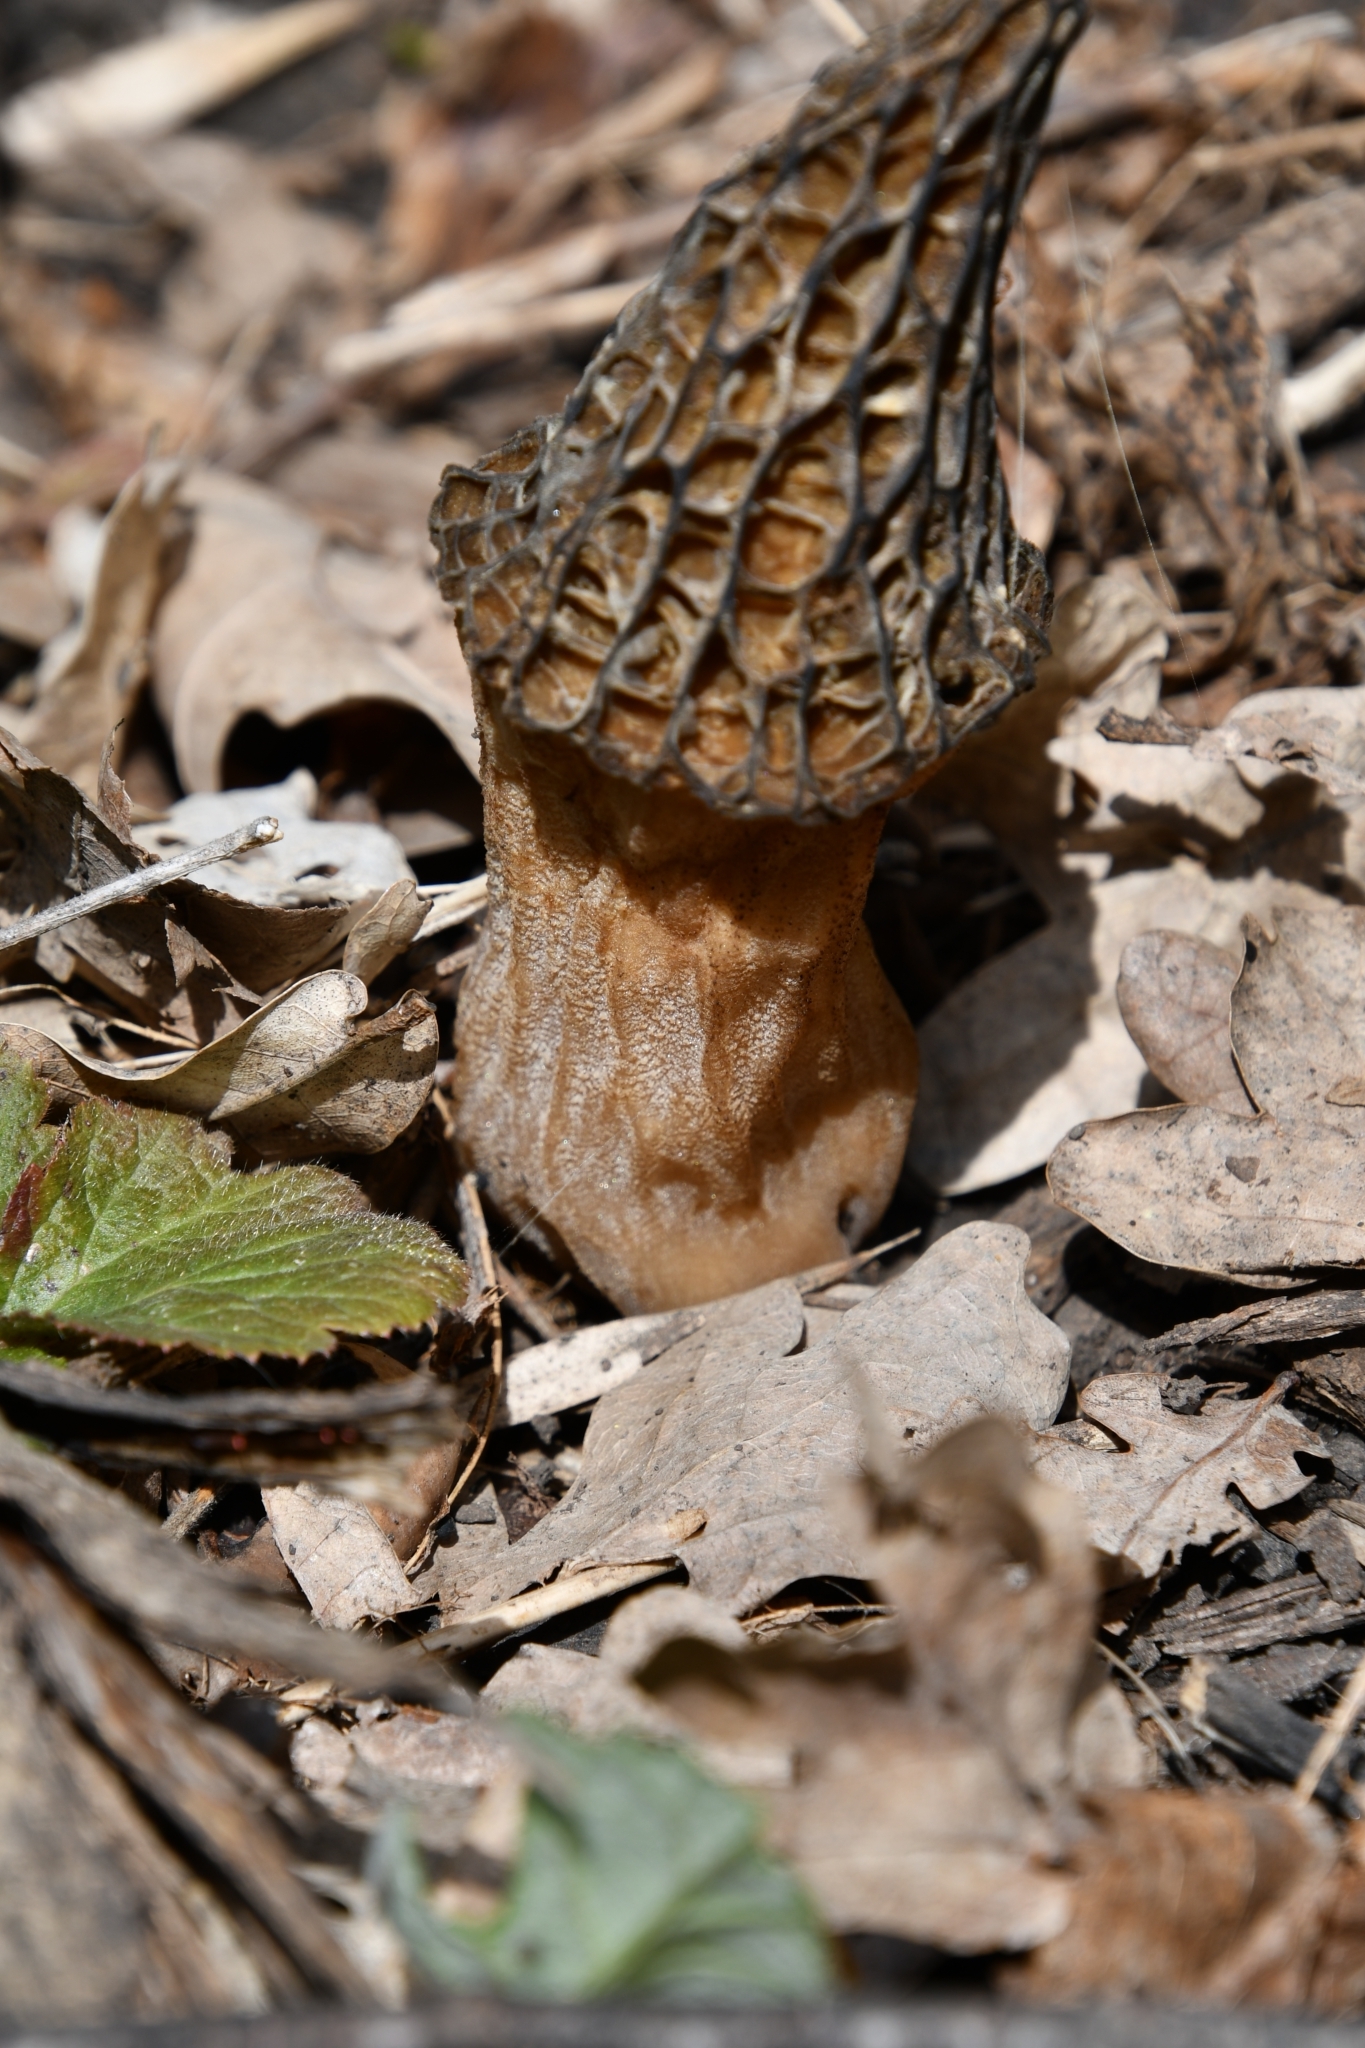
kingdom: Fungi
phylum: Ascomycota
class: Pezizomycetes
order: Pezizales
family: Morchellaceae
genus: Morchella
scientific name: Morchella
